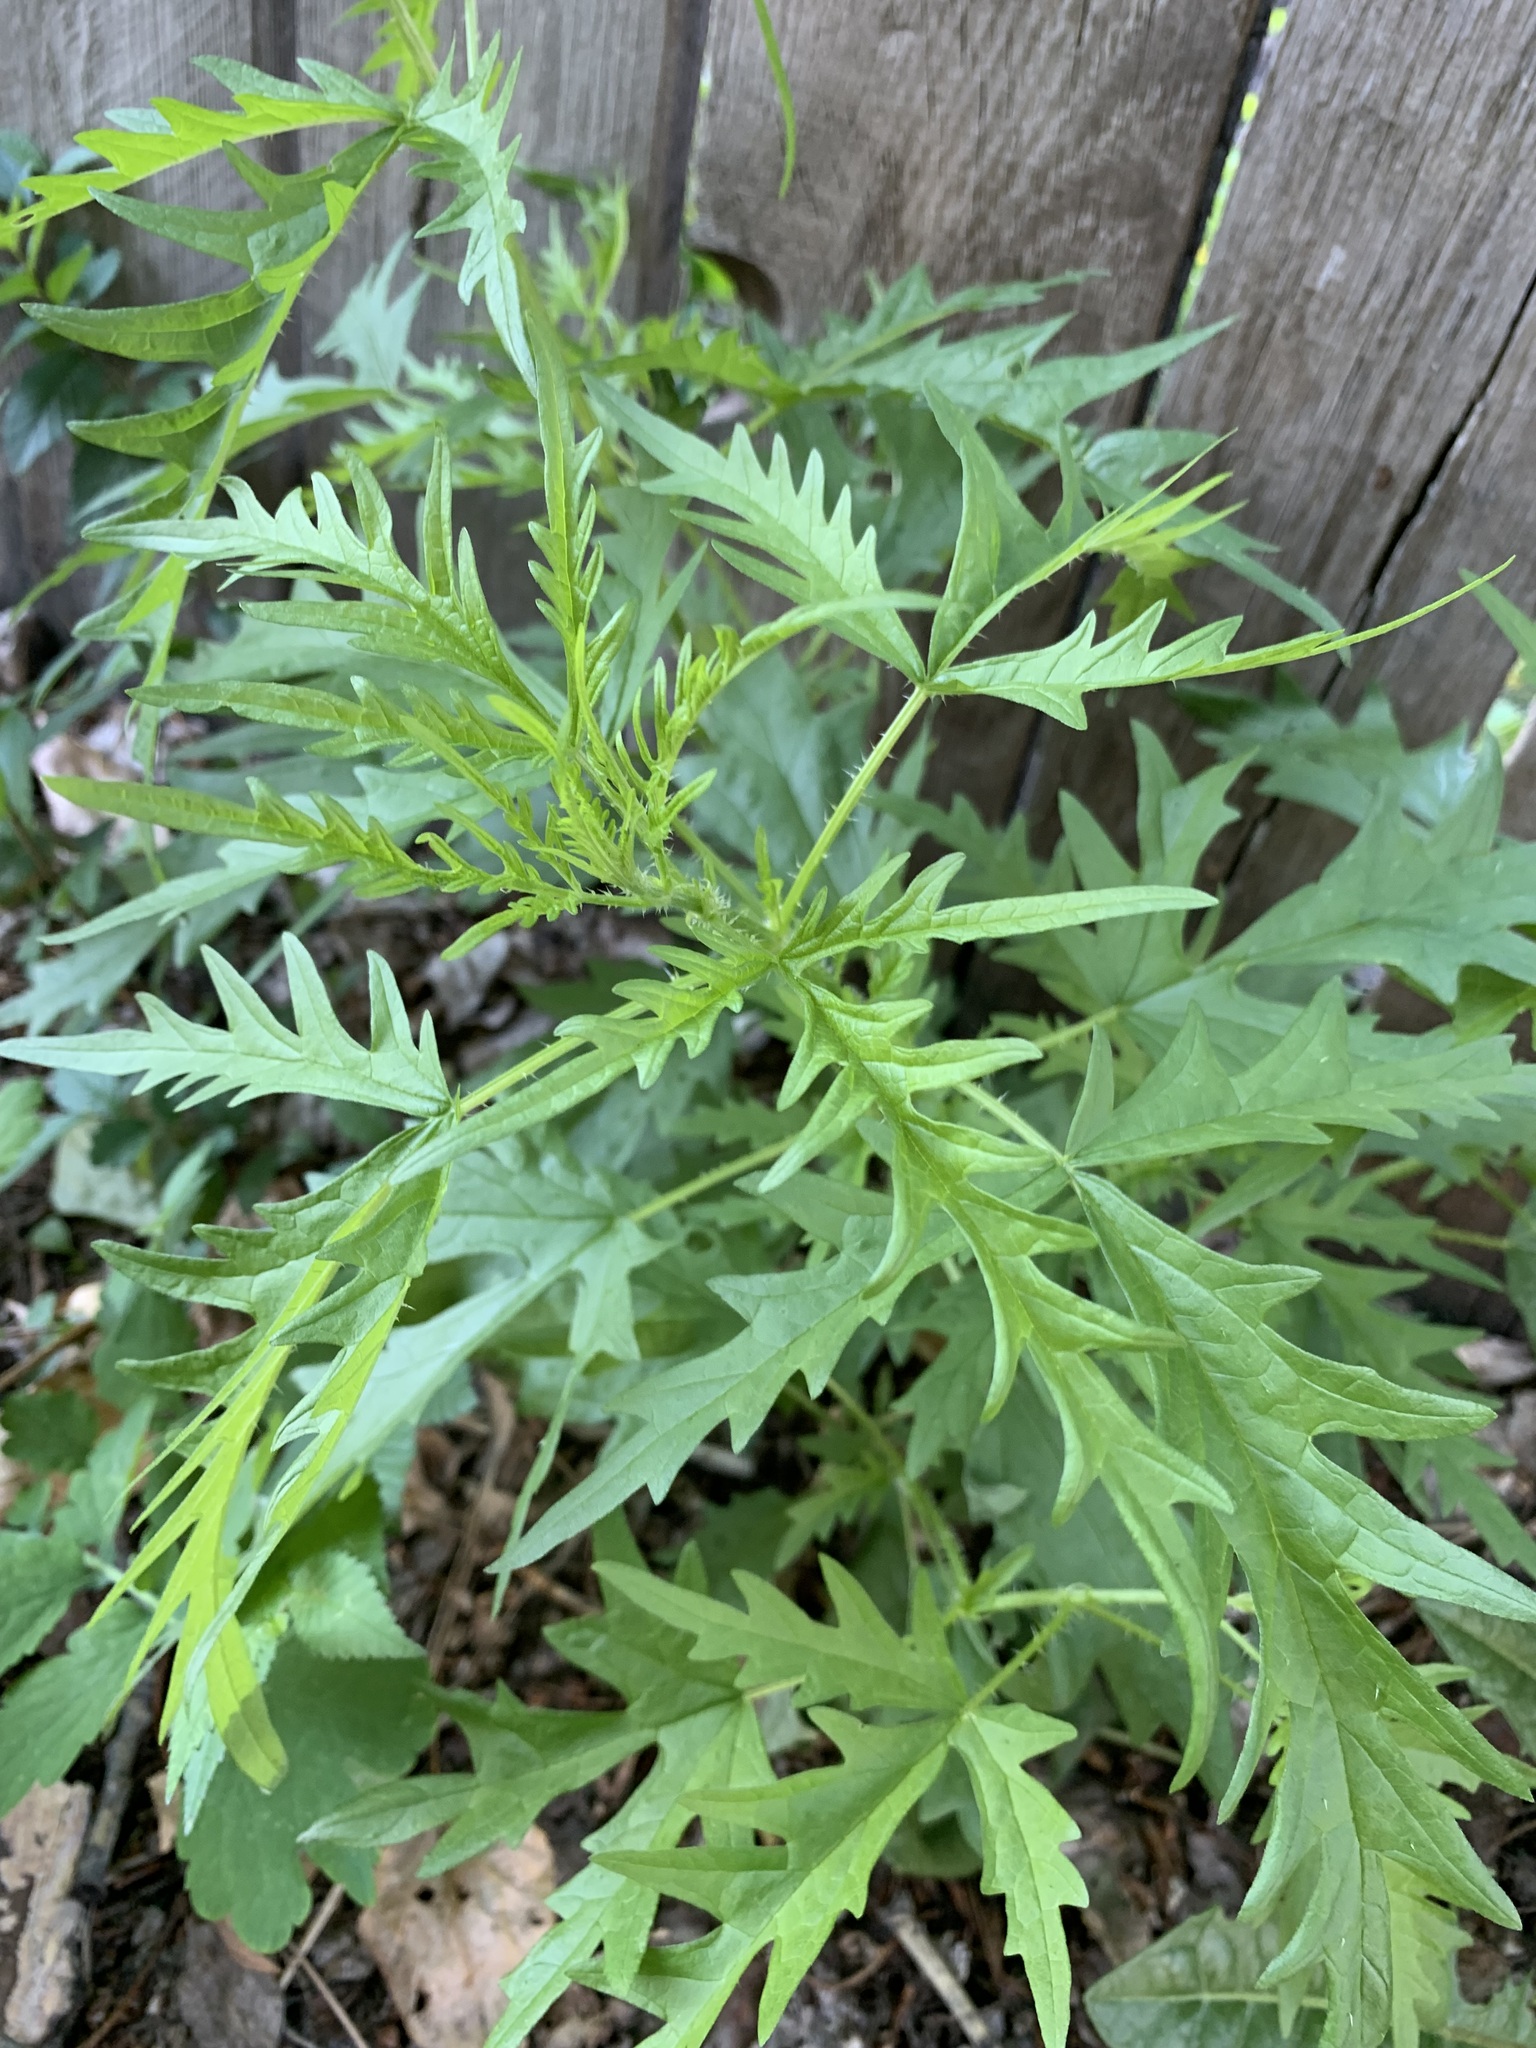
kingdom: Plantae
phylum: Tracheophyta
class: Magnoliopsida
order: Rosales
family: Urticaceae
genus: Urtica
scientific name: Urtica cannabina
